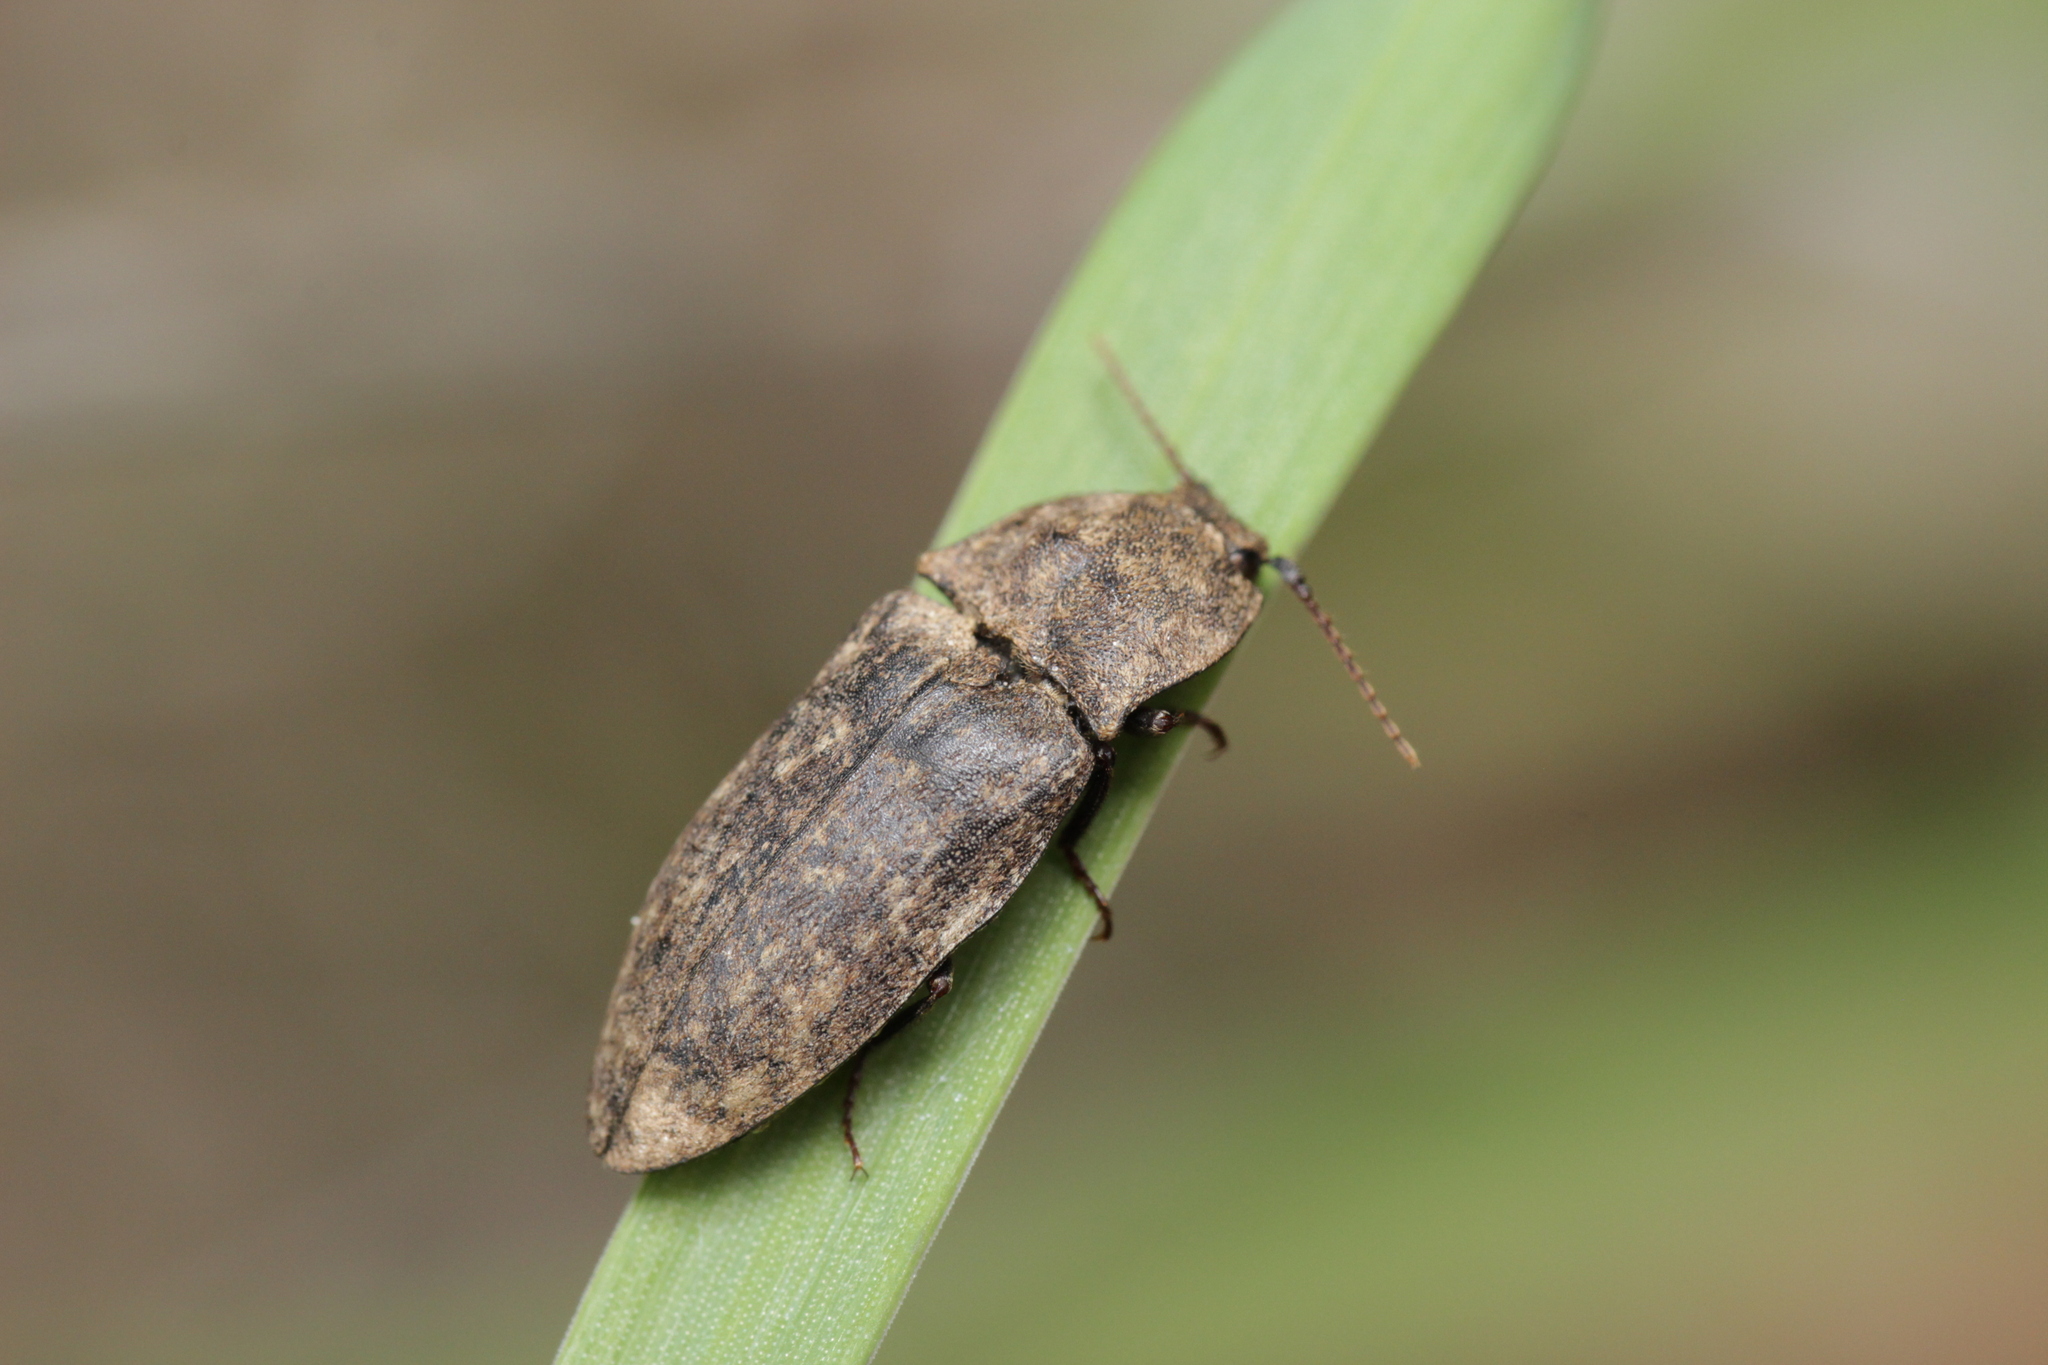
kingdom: Animalia
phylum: Arthropoda
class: Insecta
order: Coleoptera
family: Elateridae
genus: Agrypnus
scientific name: Agrypnus murinus
